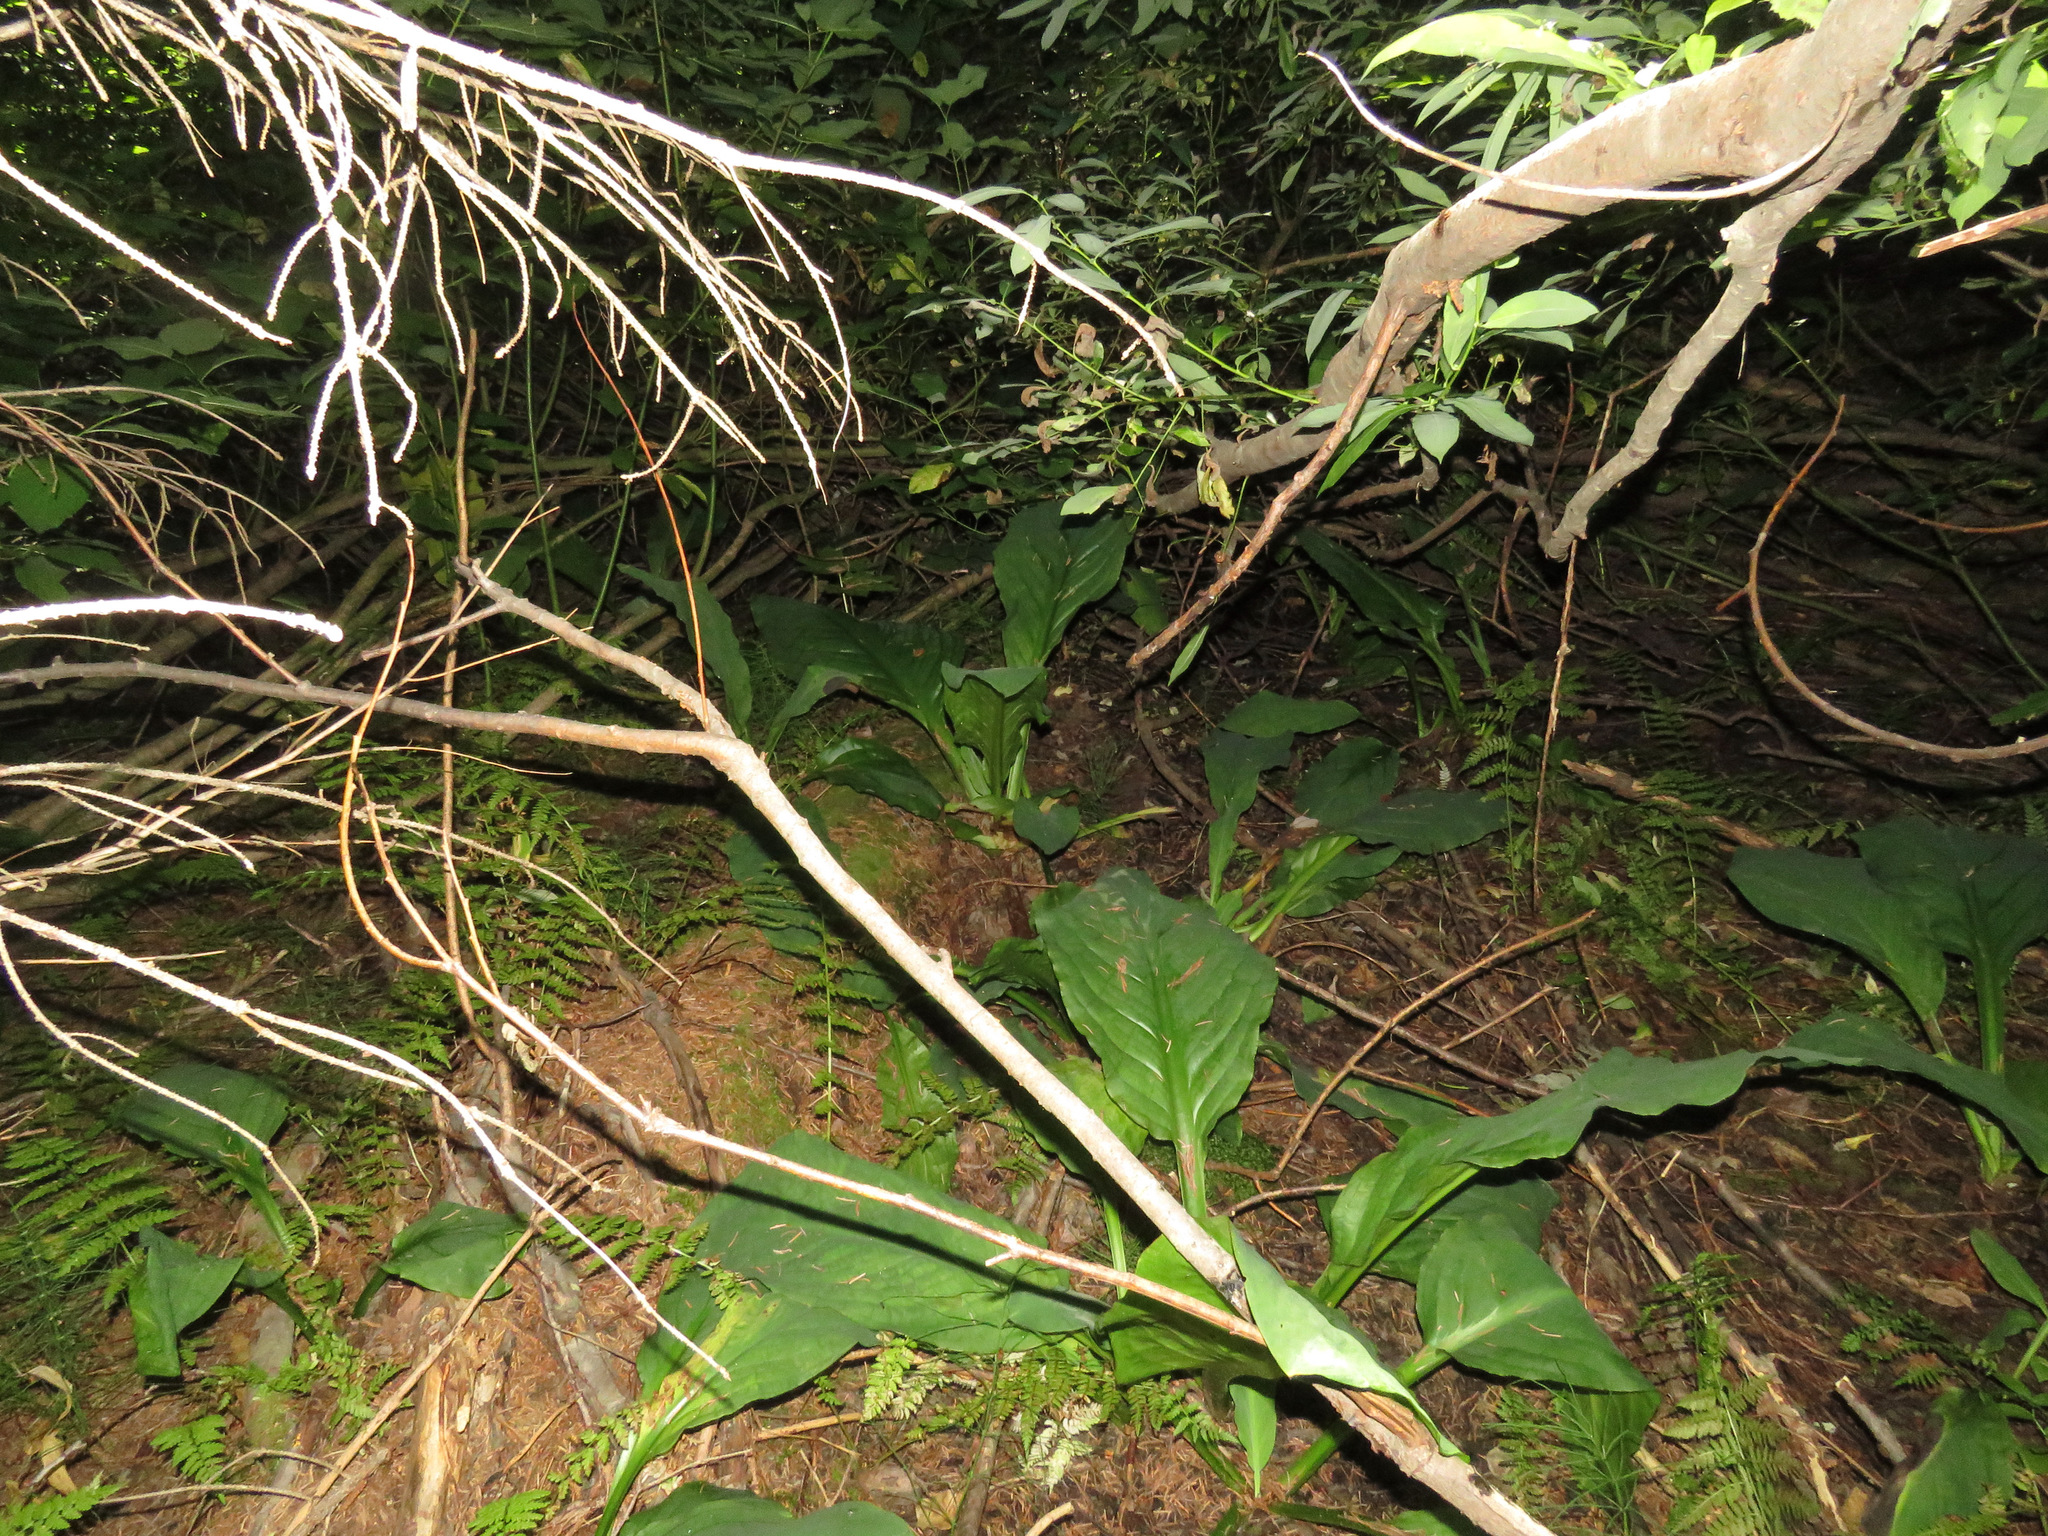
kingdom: Plantae
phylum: Tracheophyta
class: Liliopsida
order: Alismatales
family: Araceae
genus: Lysichiton
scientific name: Lysichiton americanus
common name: American skunk cabbage
